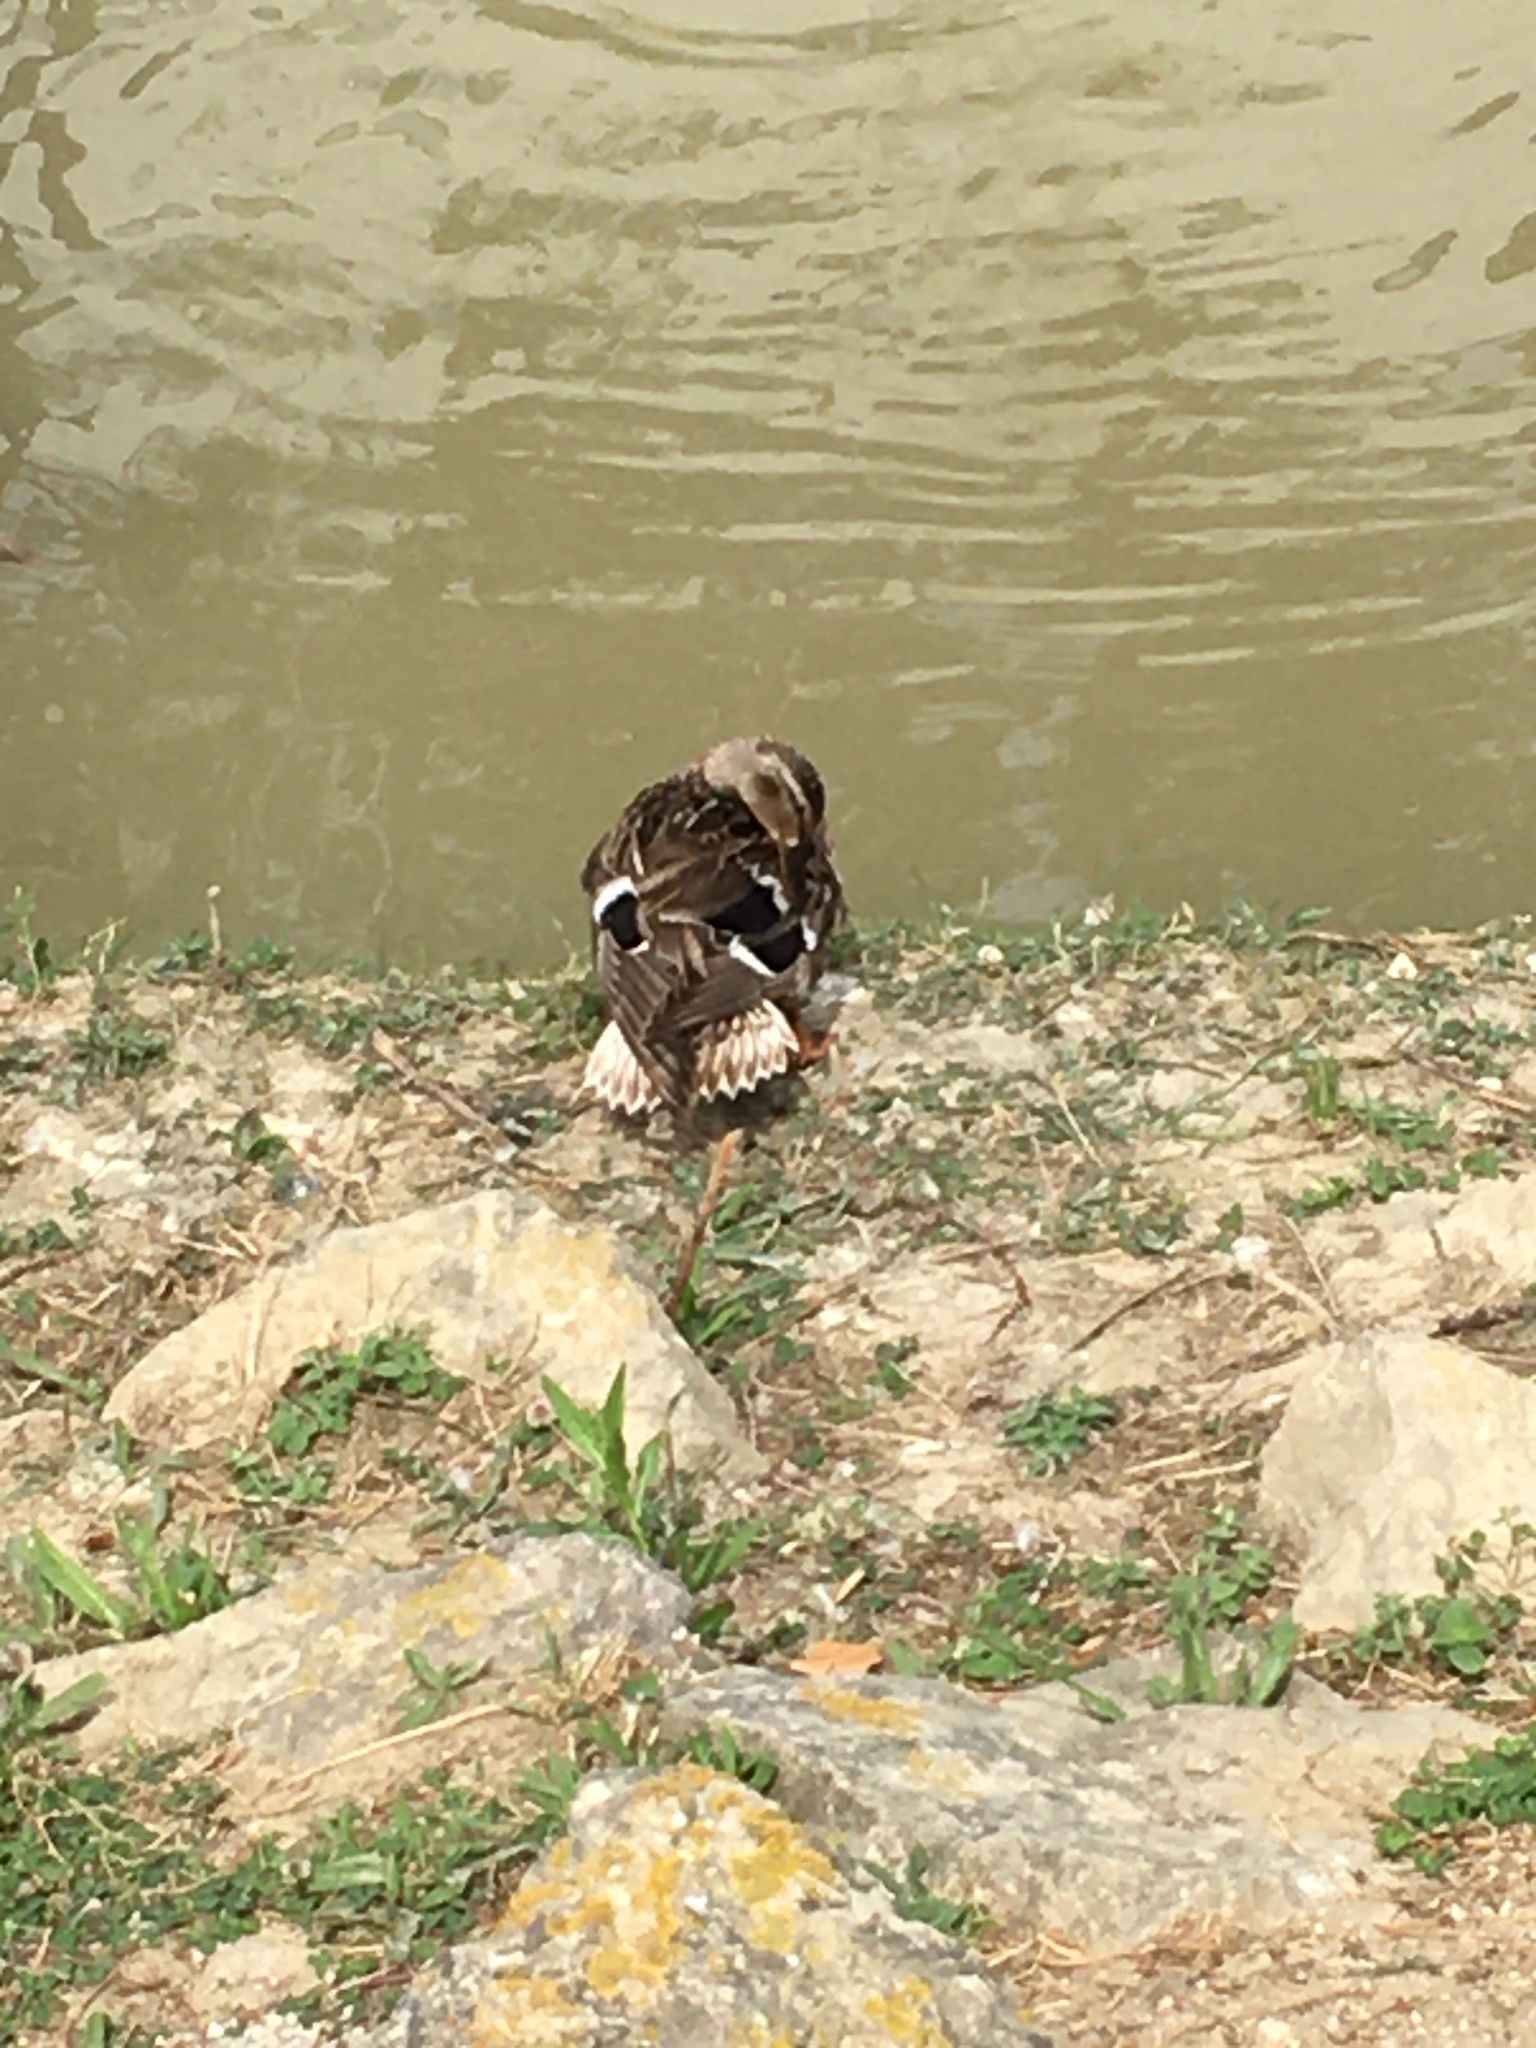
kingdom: Animalia
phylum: Chordata
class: Aves
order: Anseriformes
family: Anatidae
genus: Anas
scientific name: Anas platyrhynchos
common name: Mallard
